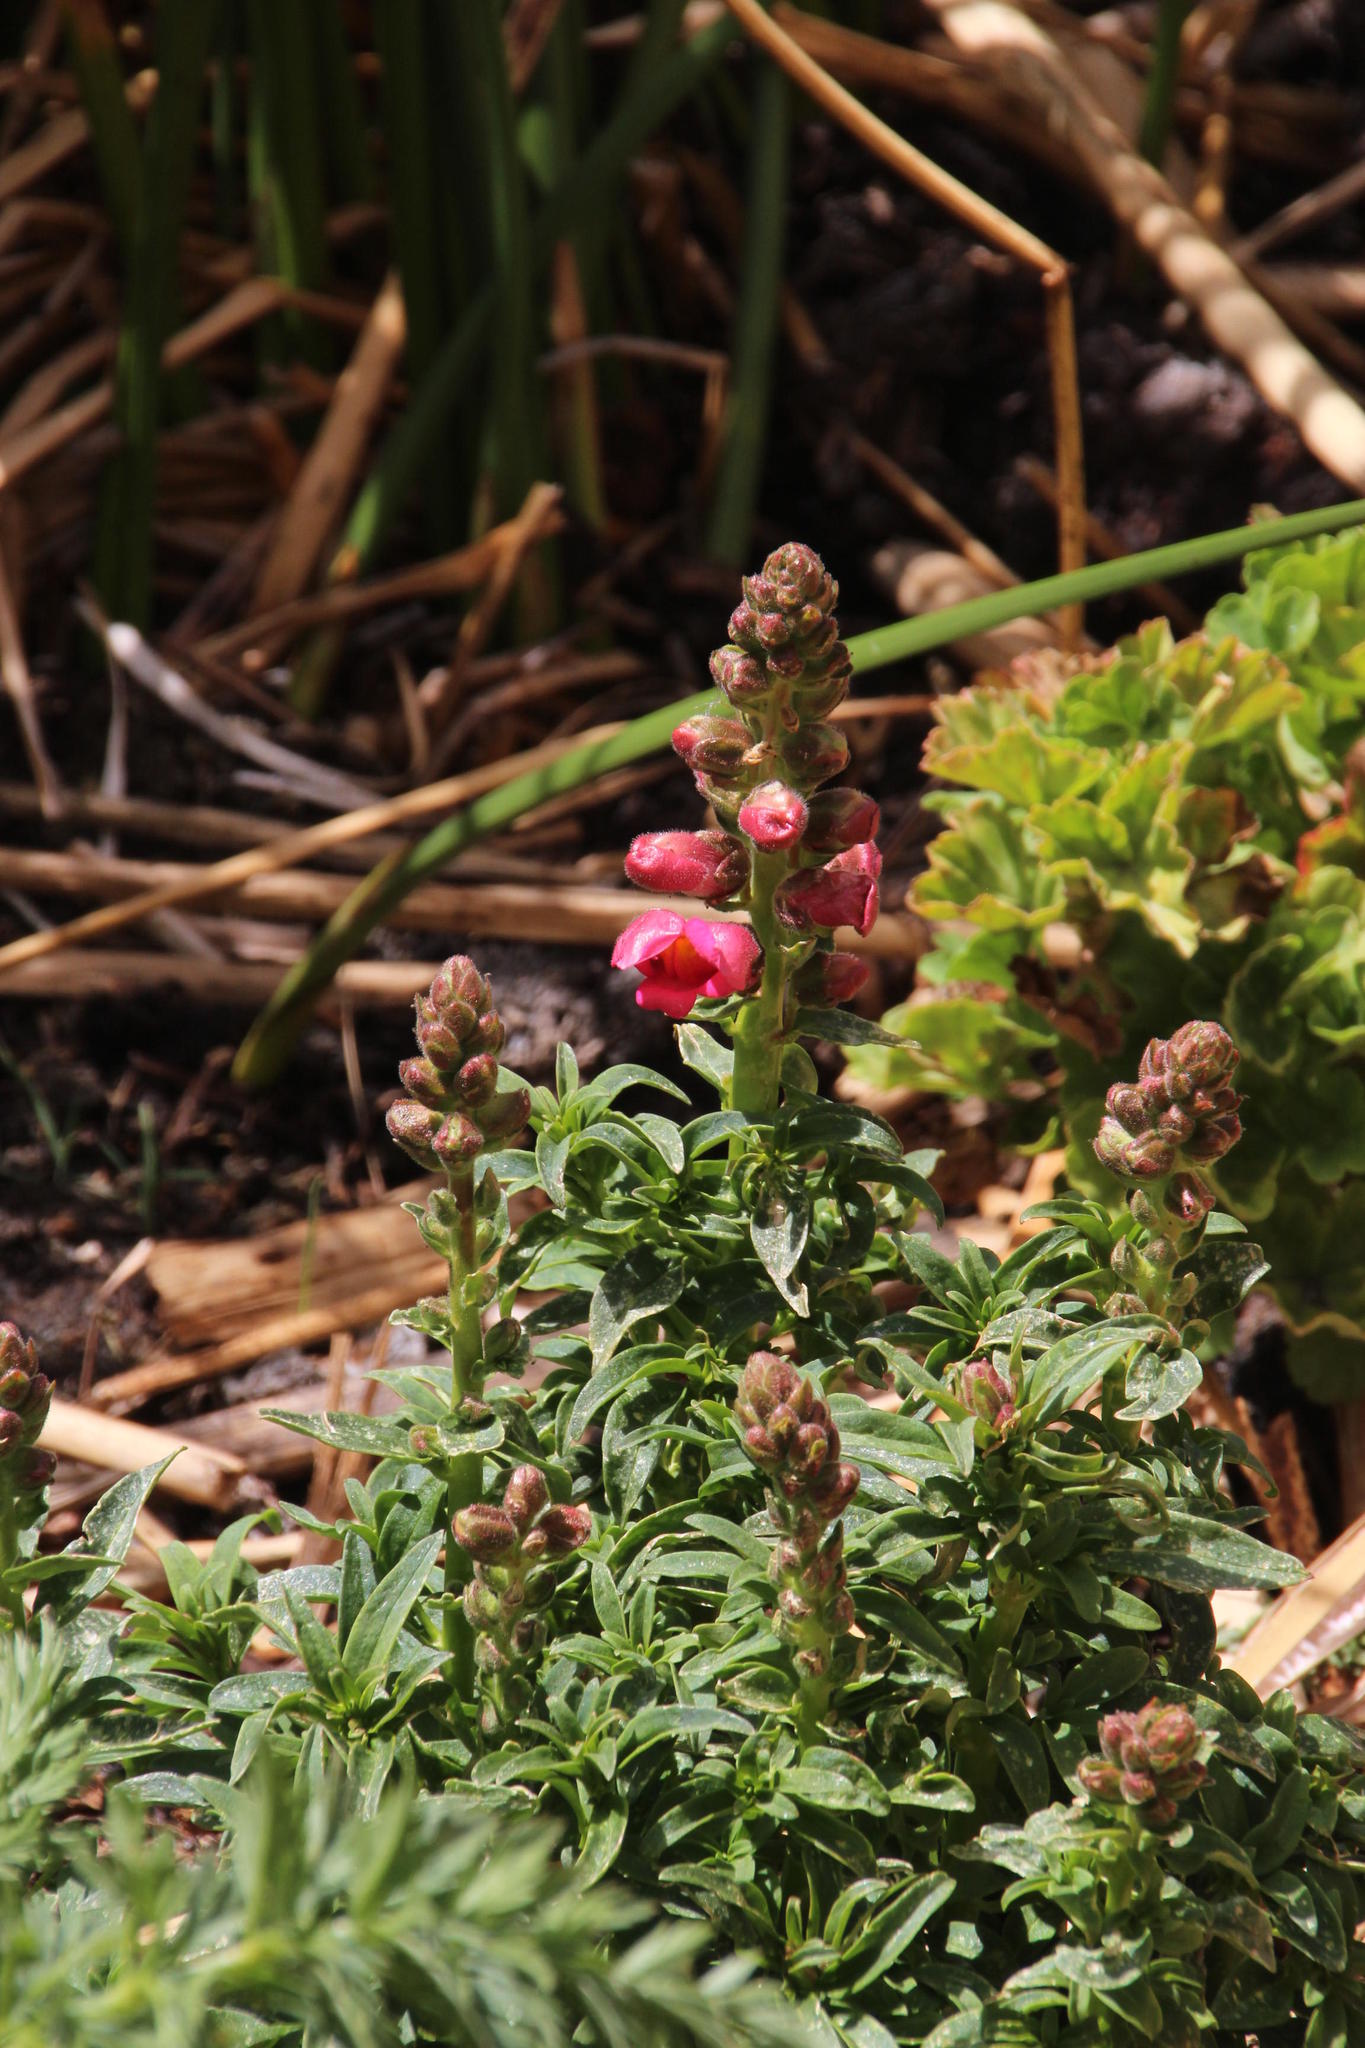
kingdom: Plantae
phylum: Tracheophyta
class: Magnoliopsida
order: Lamiales
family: Plantaginaceae
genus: Antirrhinum
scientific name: Antirrhinum majus
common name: Snapdragon
